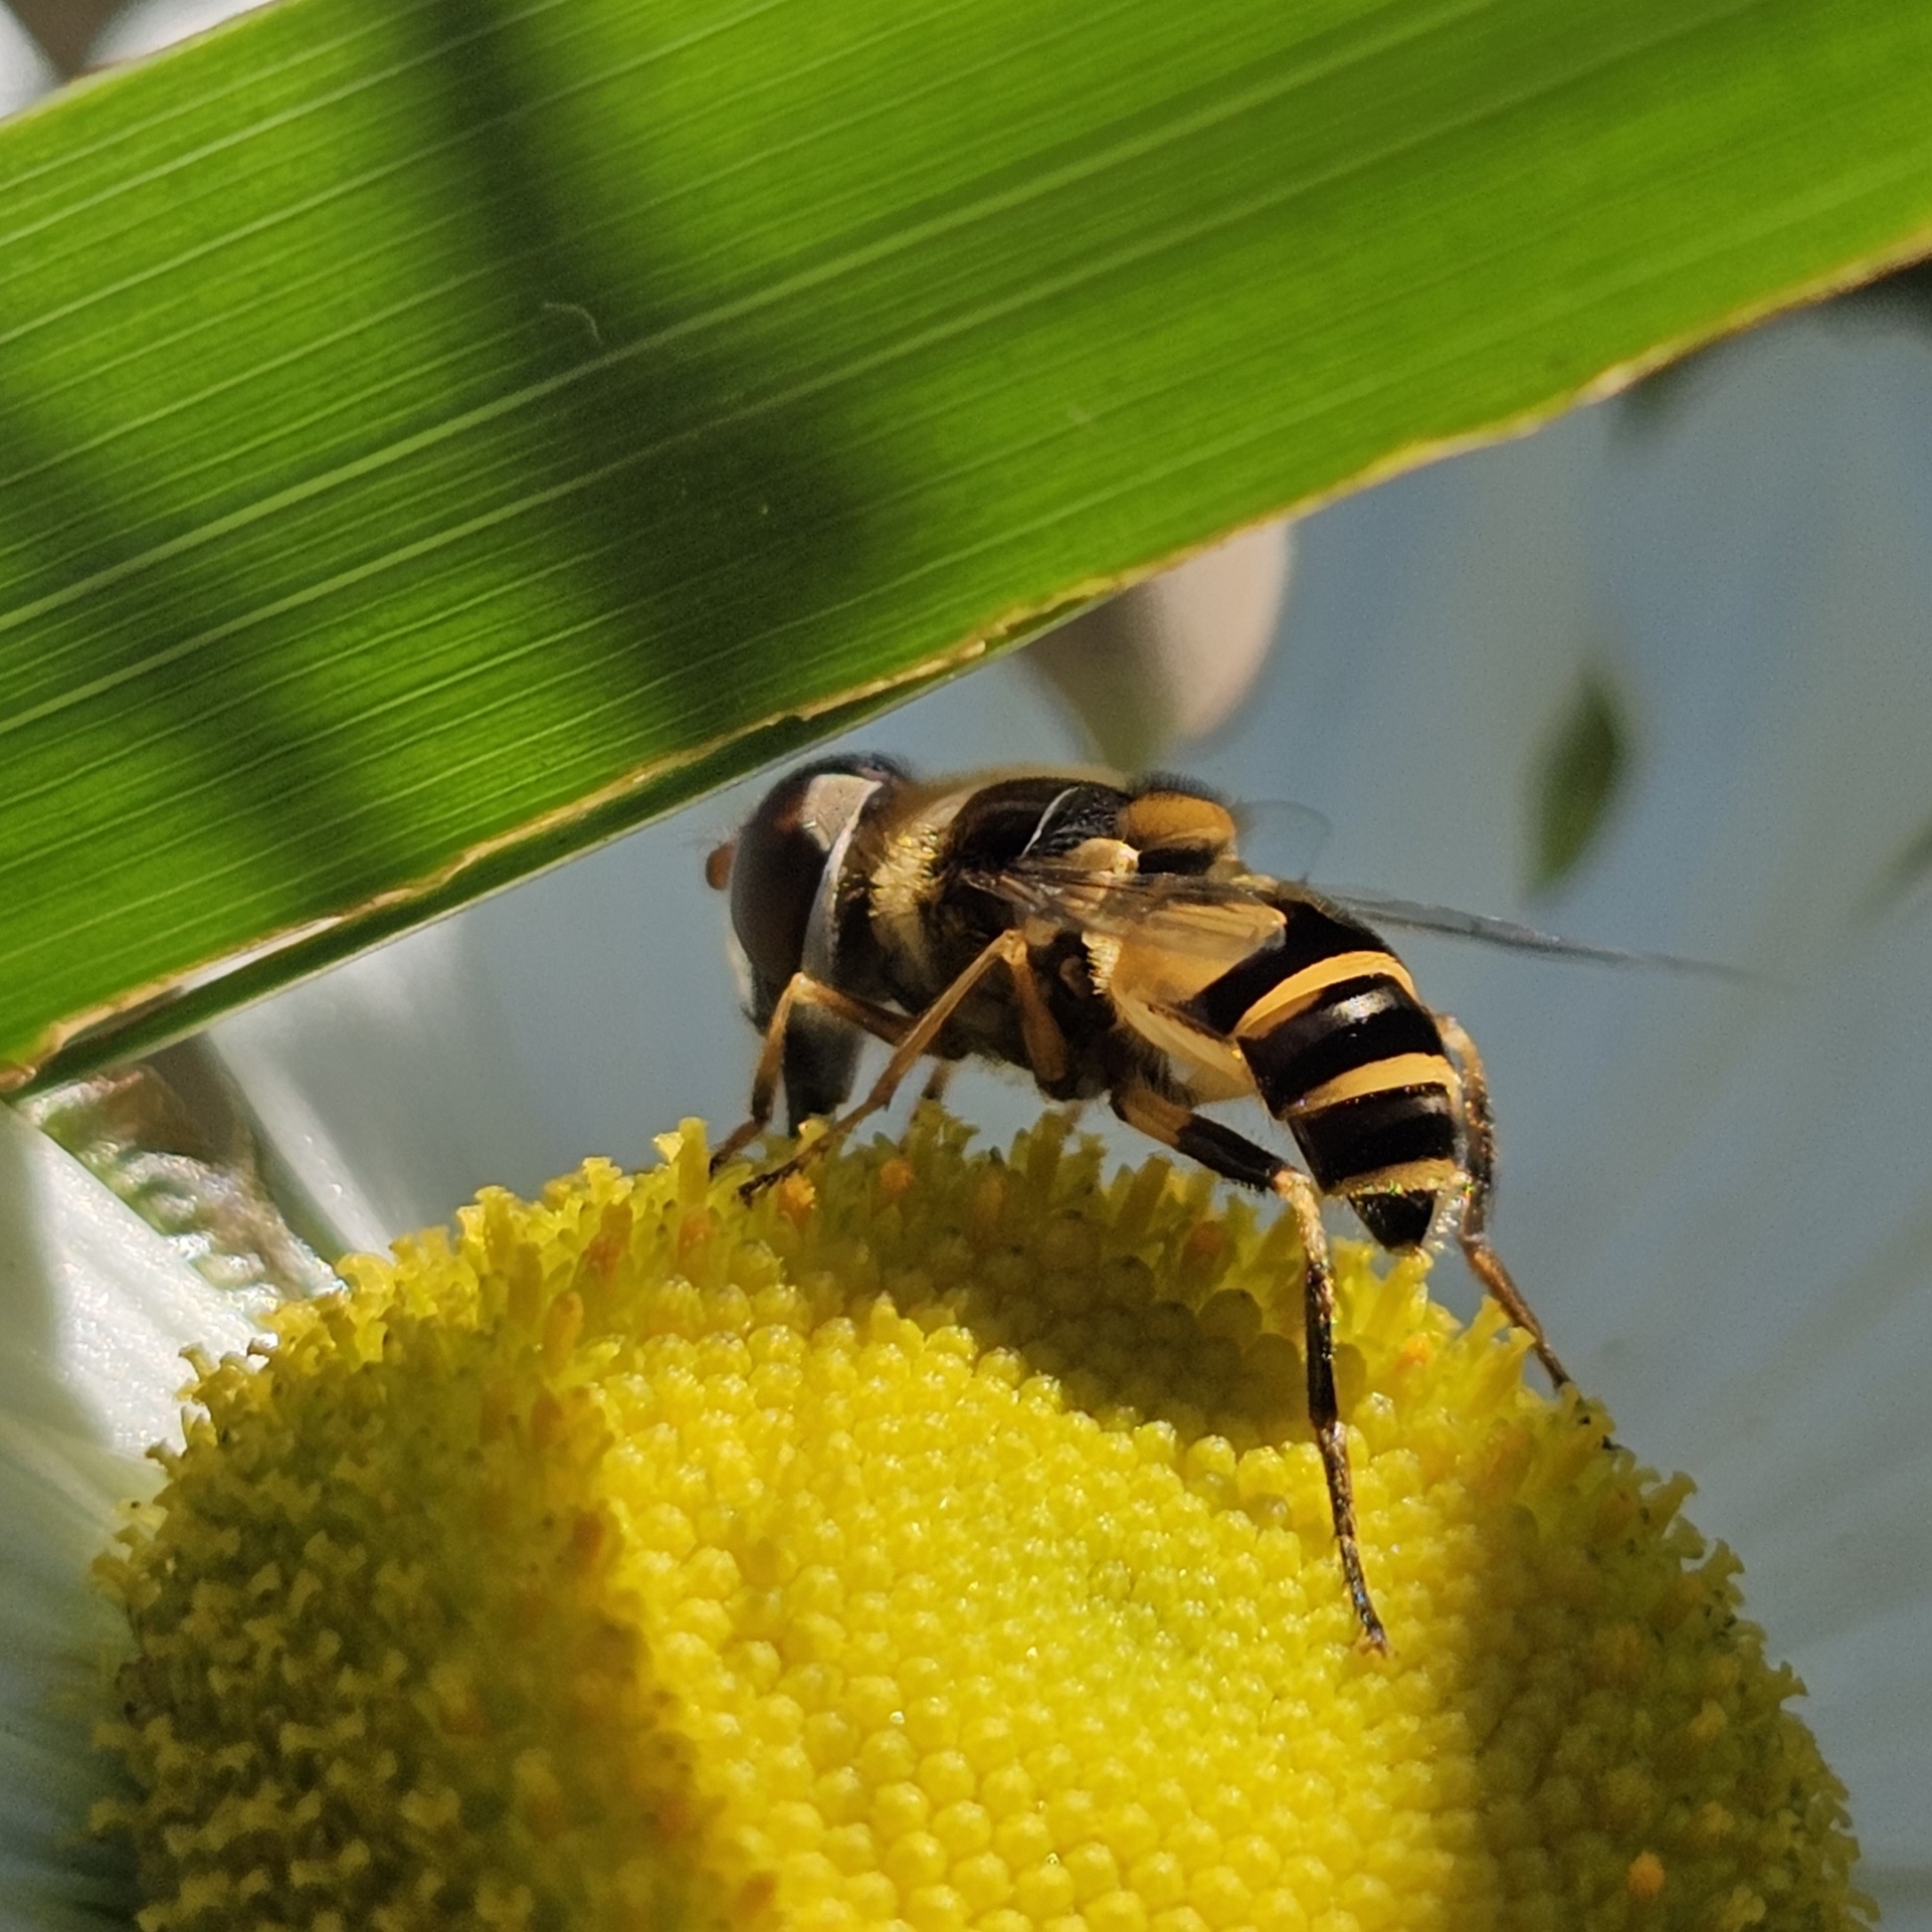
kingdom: Animalia
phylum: Arthropoda
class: Insecta
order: Diptera
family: Syrphidae
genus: Eristalis
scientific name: Eristalis transversa
